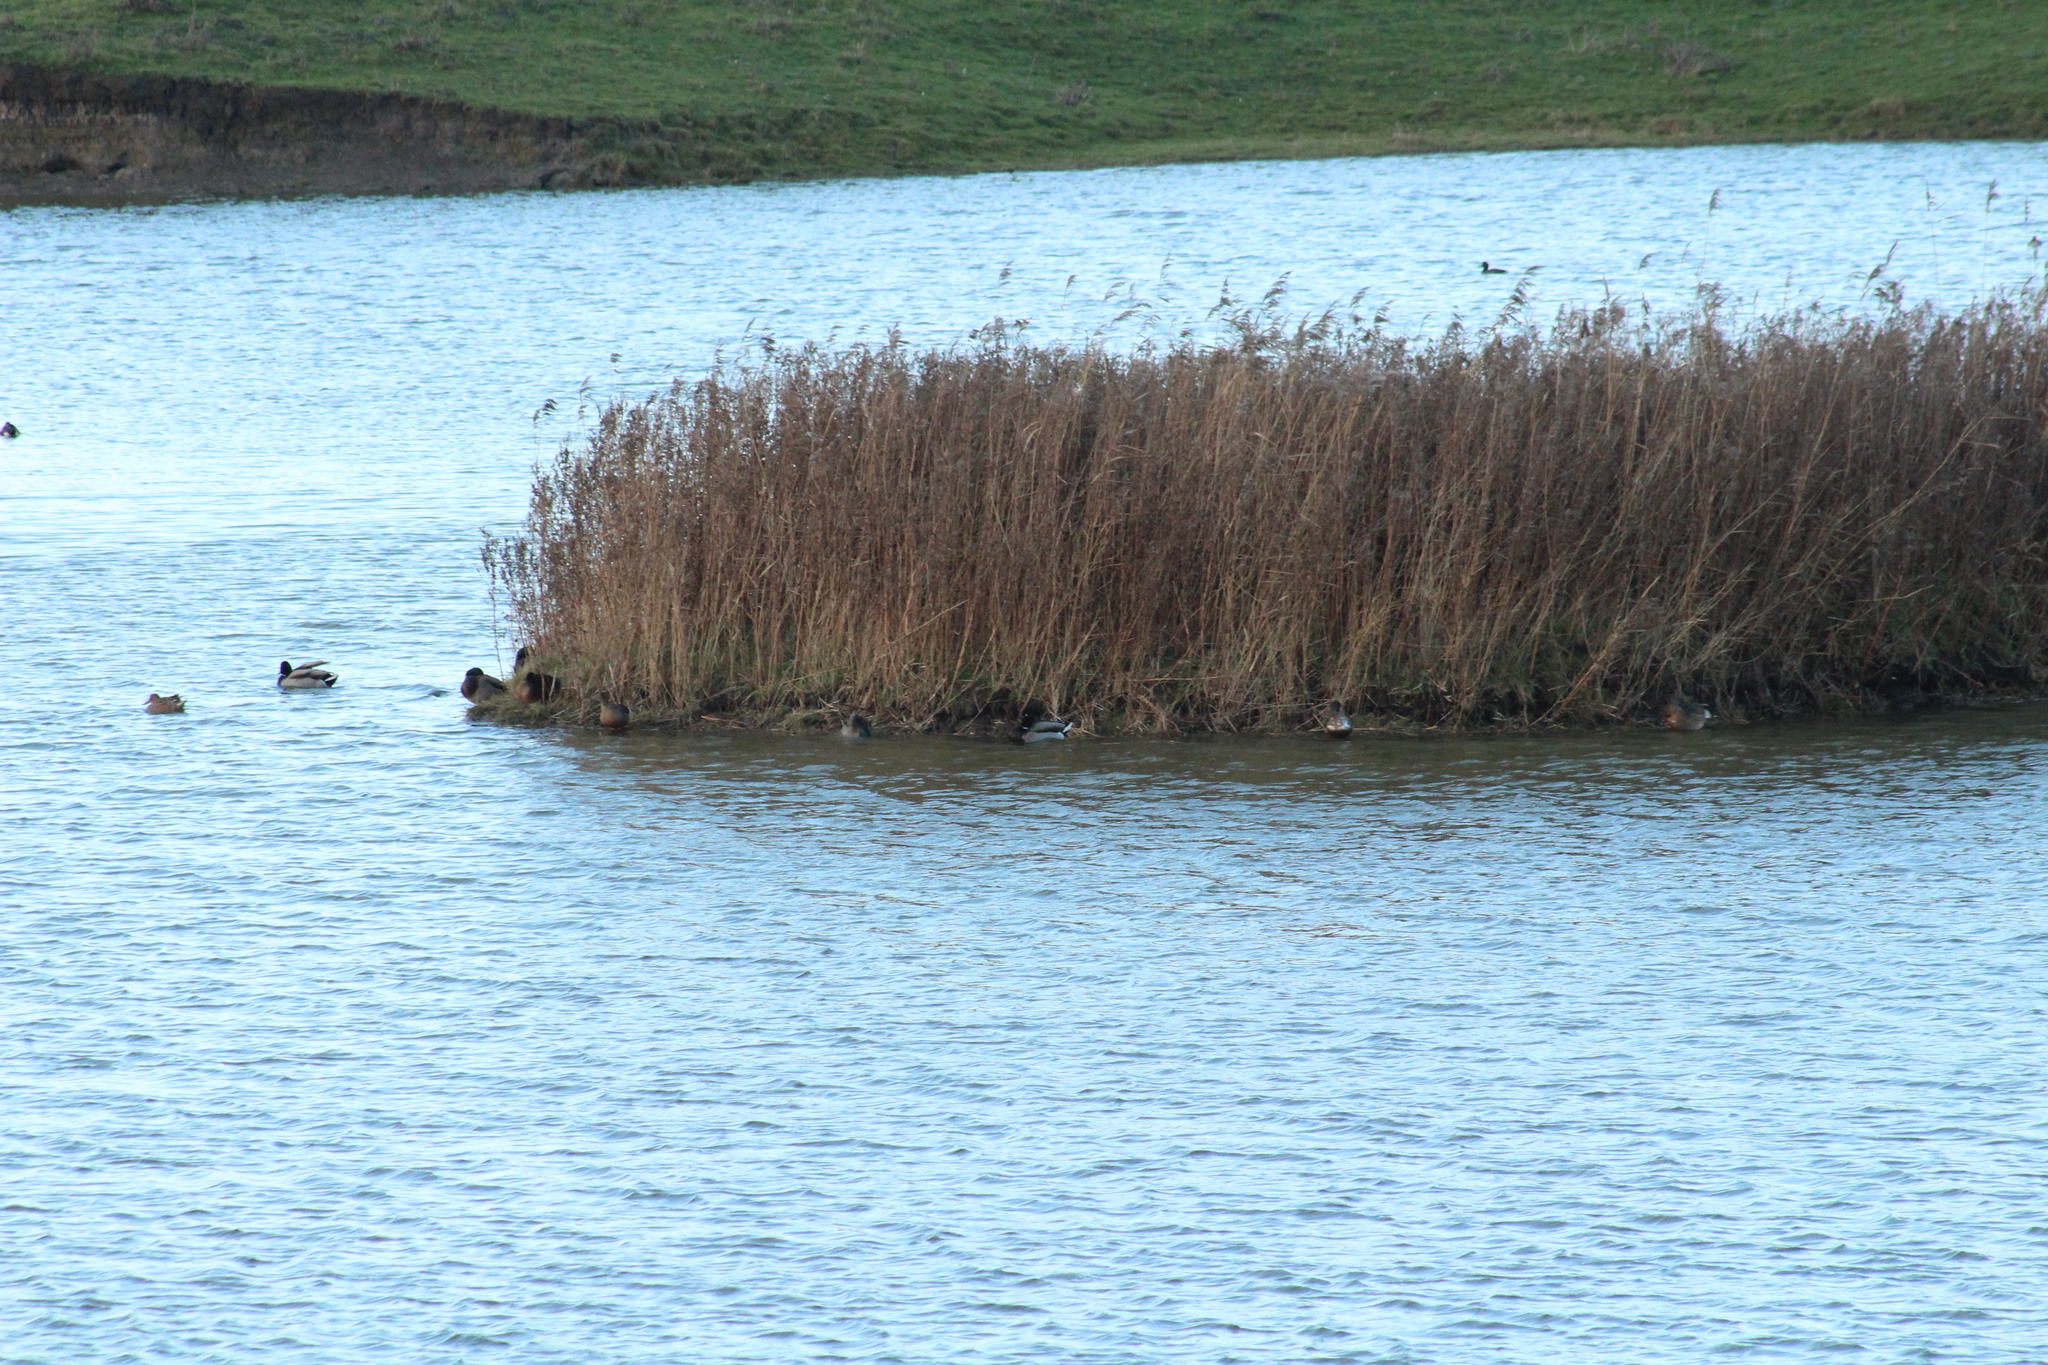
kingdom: Animalia
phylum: Chordata
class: Aves
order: Anseriformes
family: Anatidae
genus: Anas
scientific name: Anas platyrhynchos
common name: Mallard
